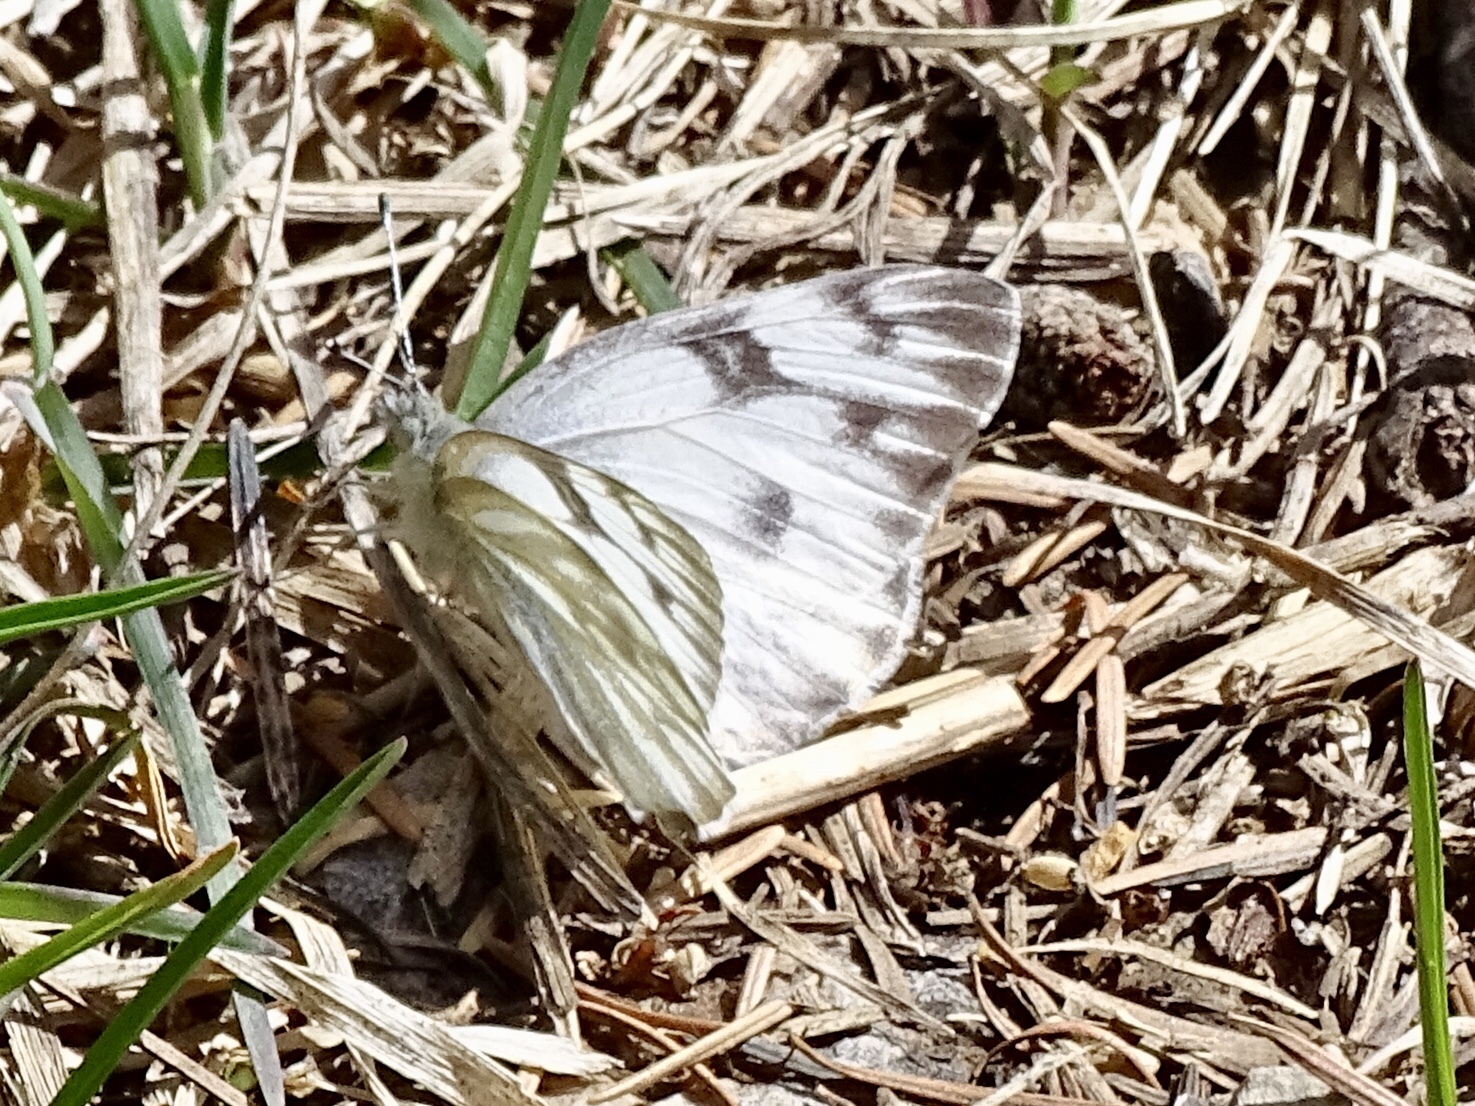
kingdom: Animalia
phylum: Arthropoda
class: Insecta
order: Lepidoptera
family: Pieridae
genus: Pontia
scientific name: Pontia protodice
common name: Checkered white
